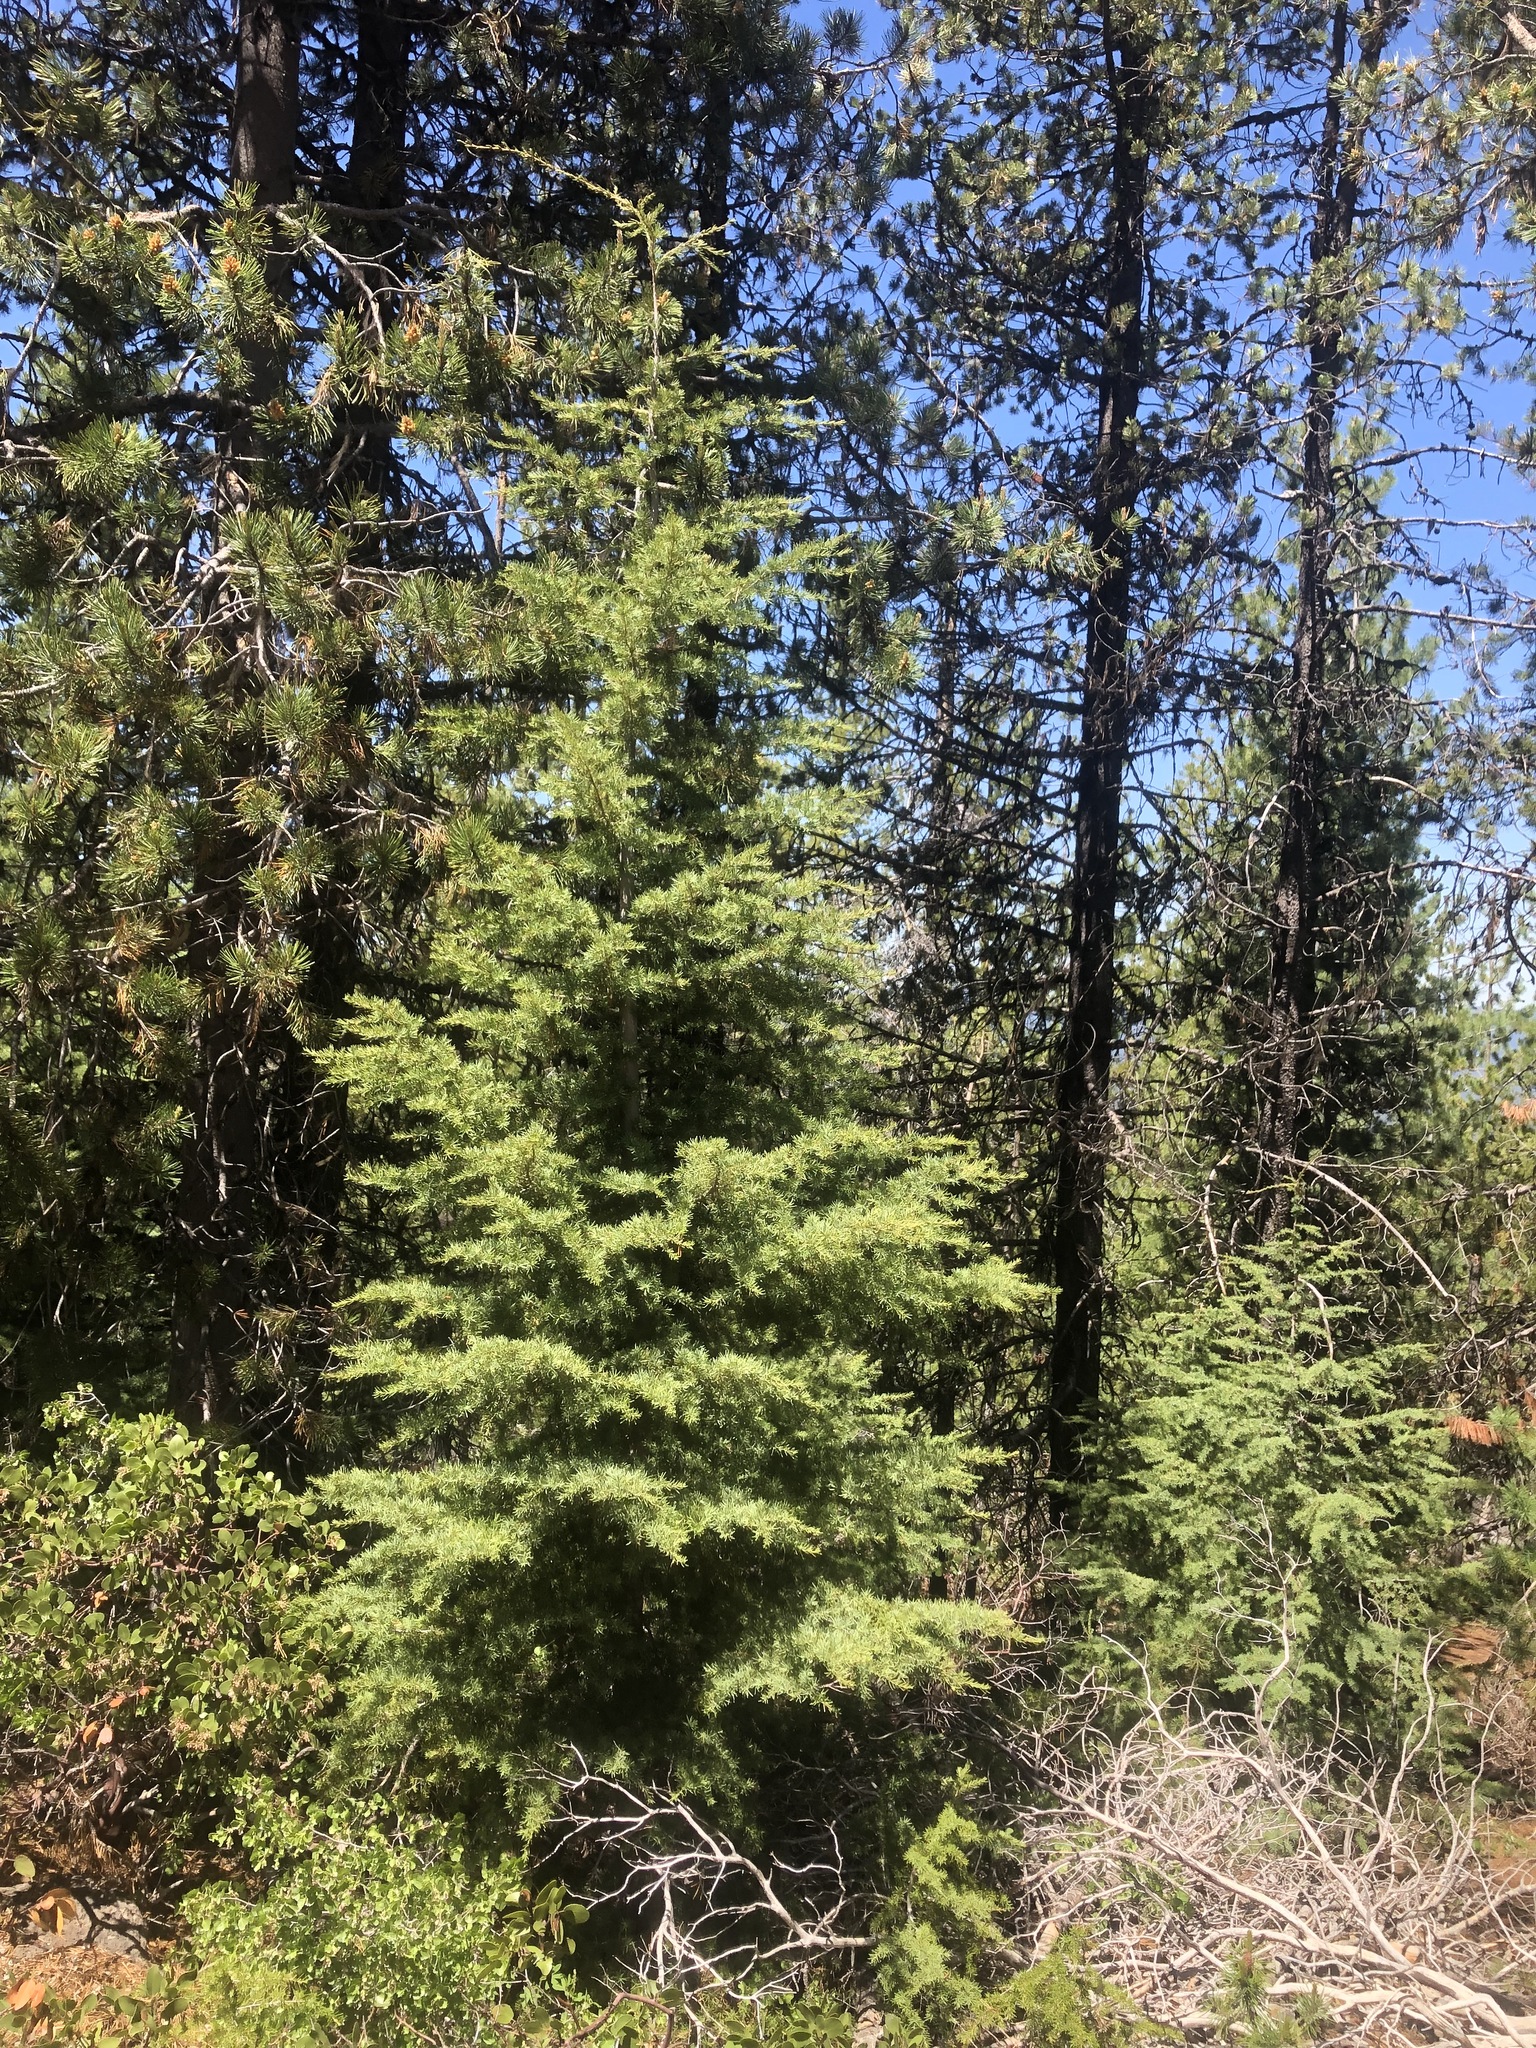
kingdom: Plantae
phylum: Tracheophyta
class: Pinopsida
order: Pinales
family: Pinaceae
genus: Tsuga
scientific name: Tsuga mertensiana
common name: Mountain hemlock
